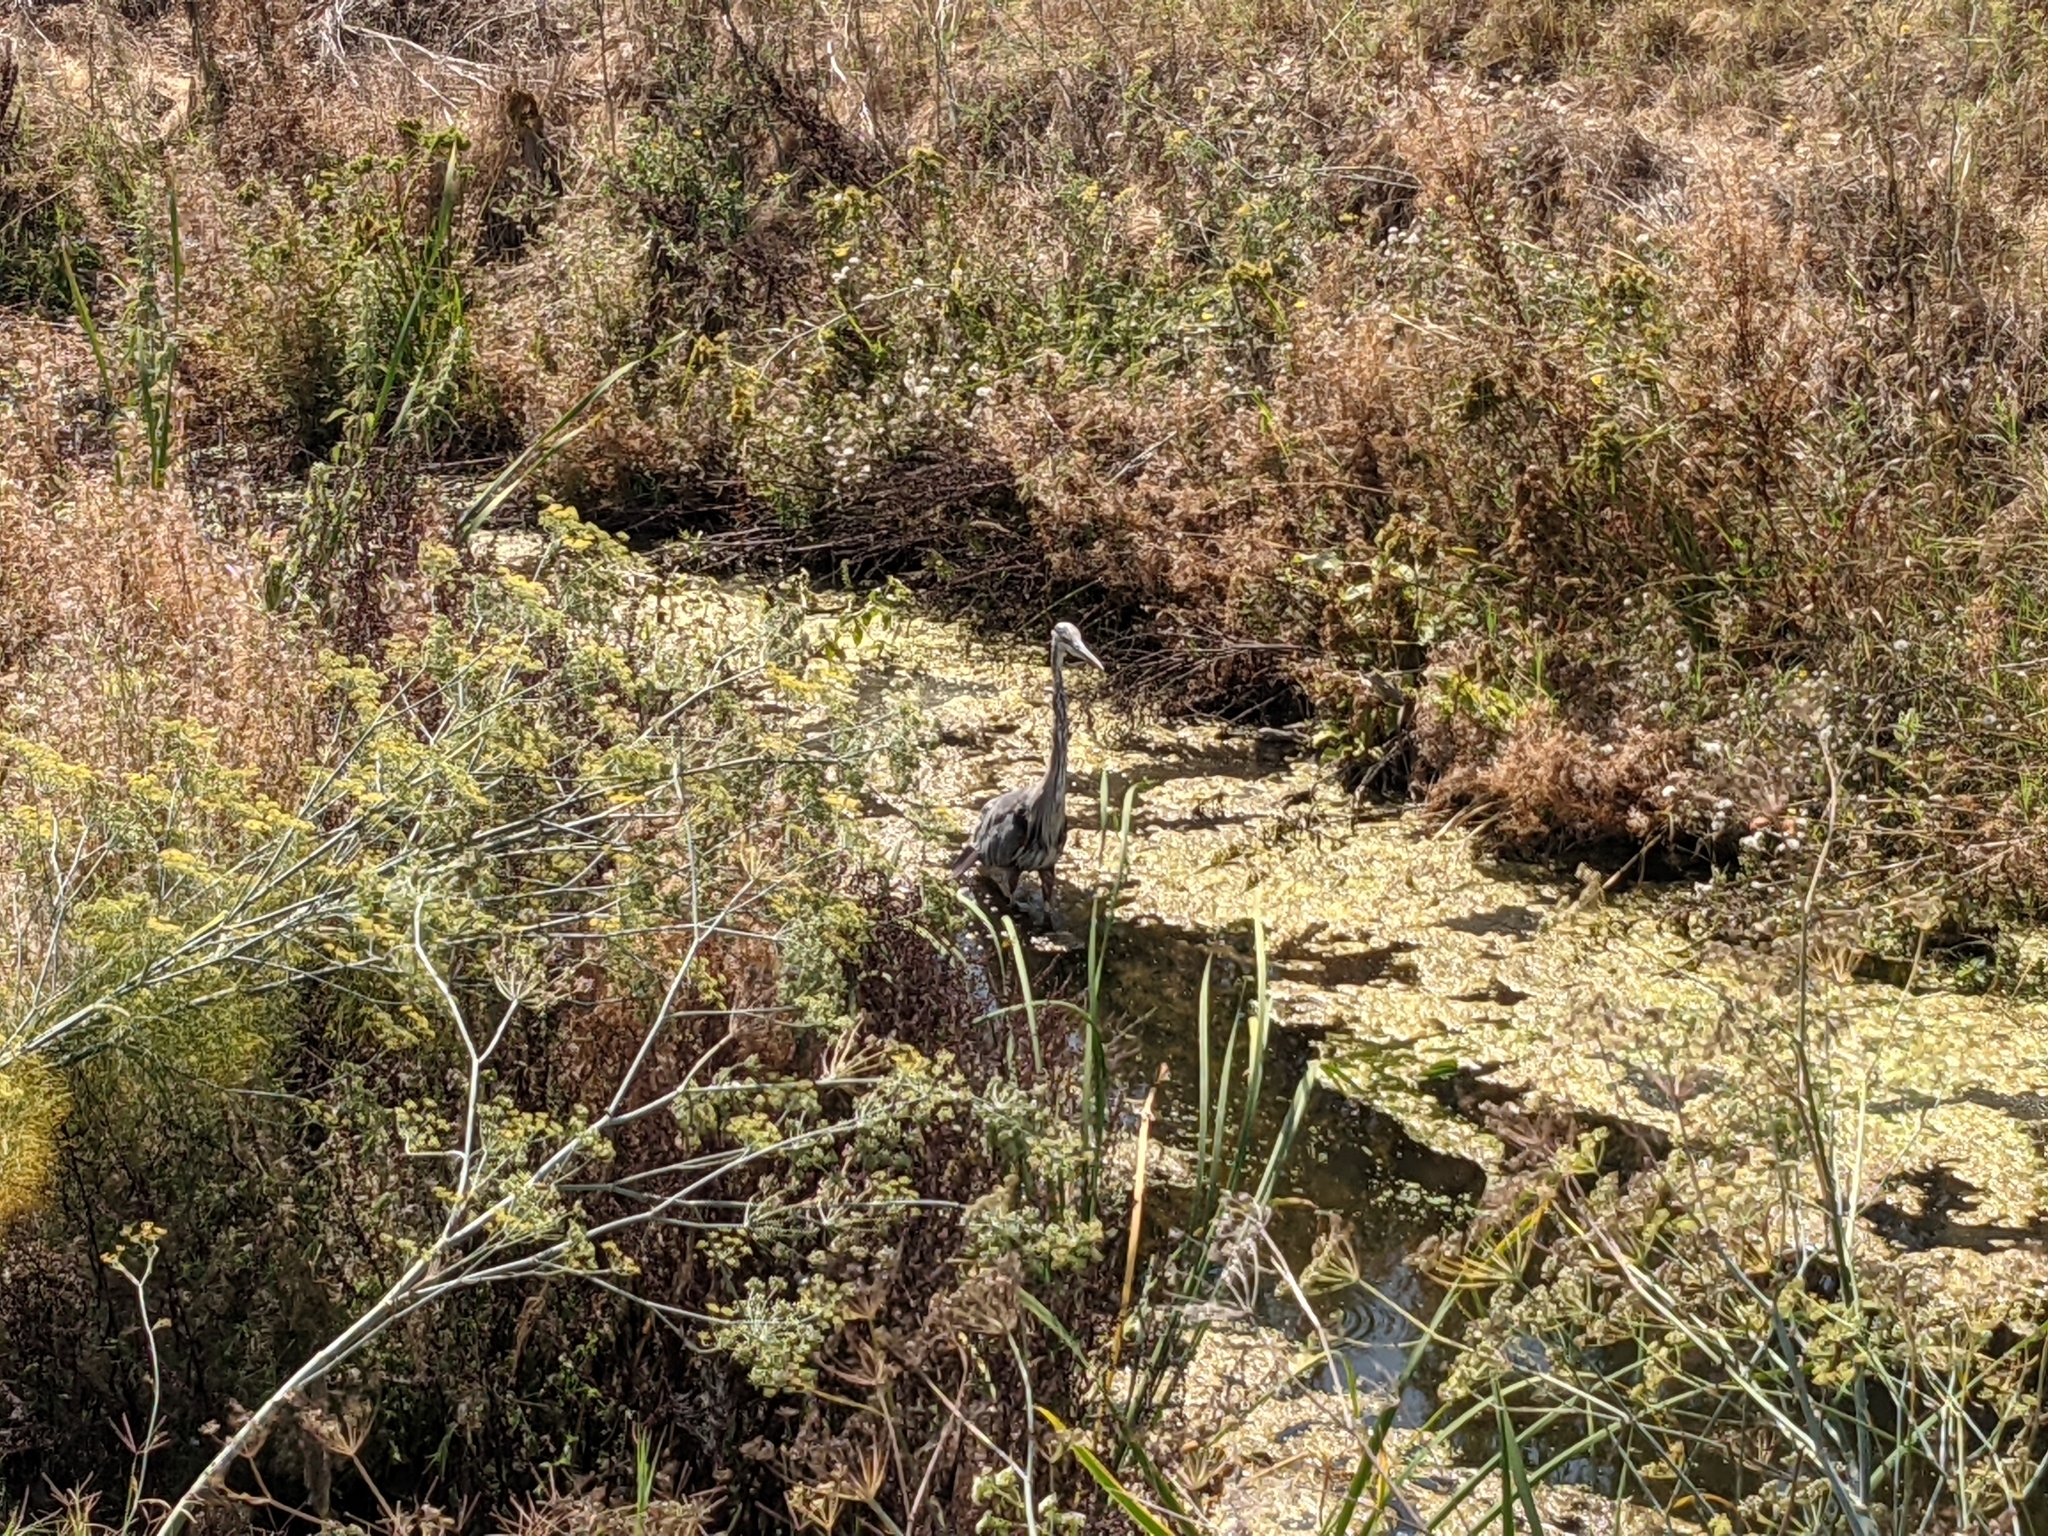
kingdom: Animalia
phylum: Chordata
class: Aves
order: Pelecaniformes
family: Ardeidae
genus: Ardea
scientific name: Ardea herodias
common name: Great blue heron
